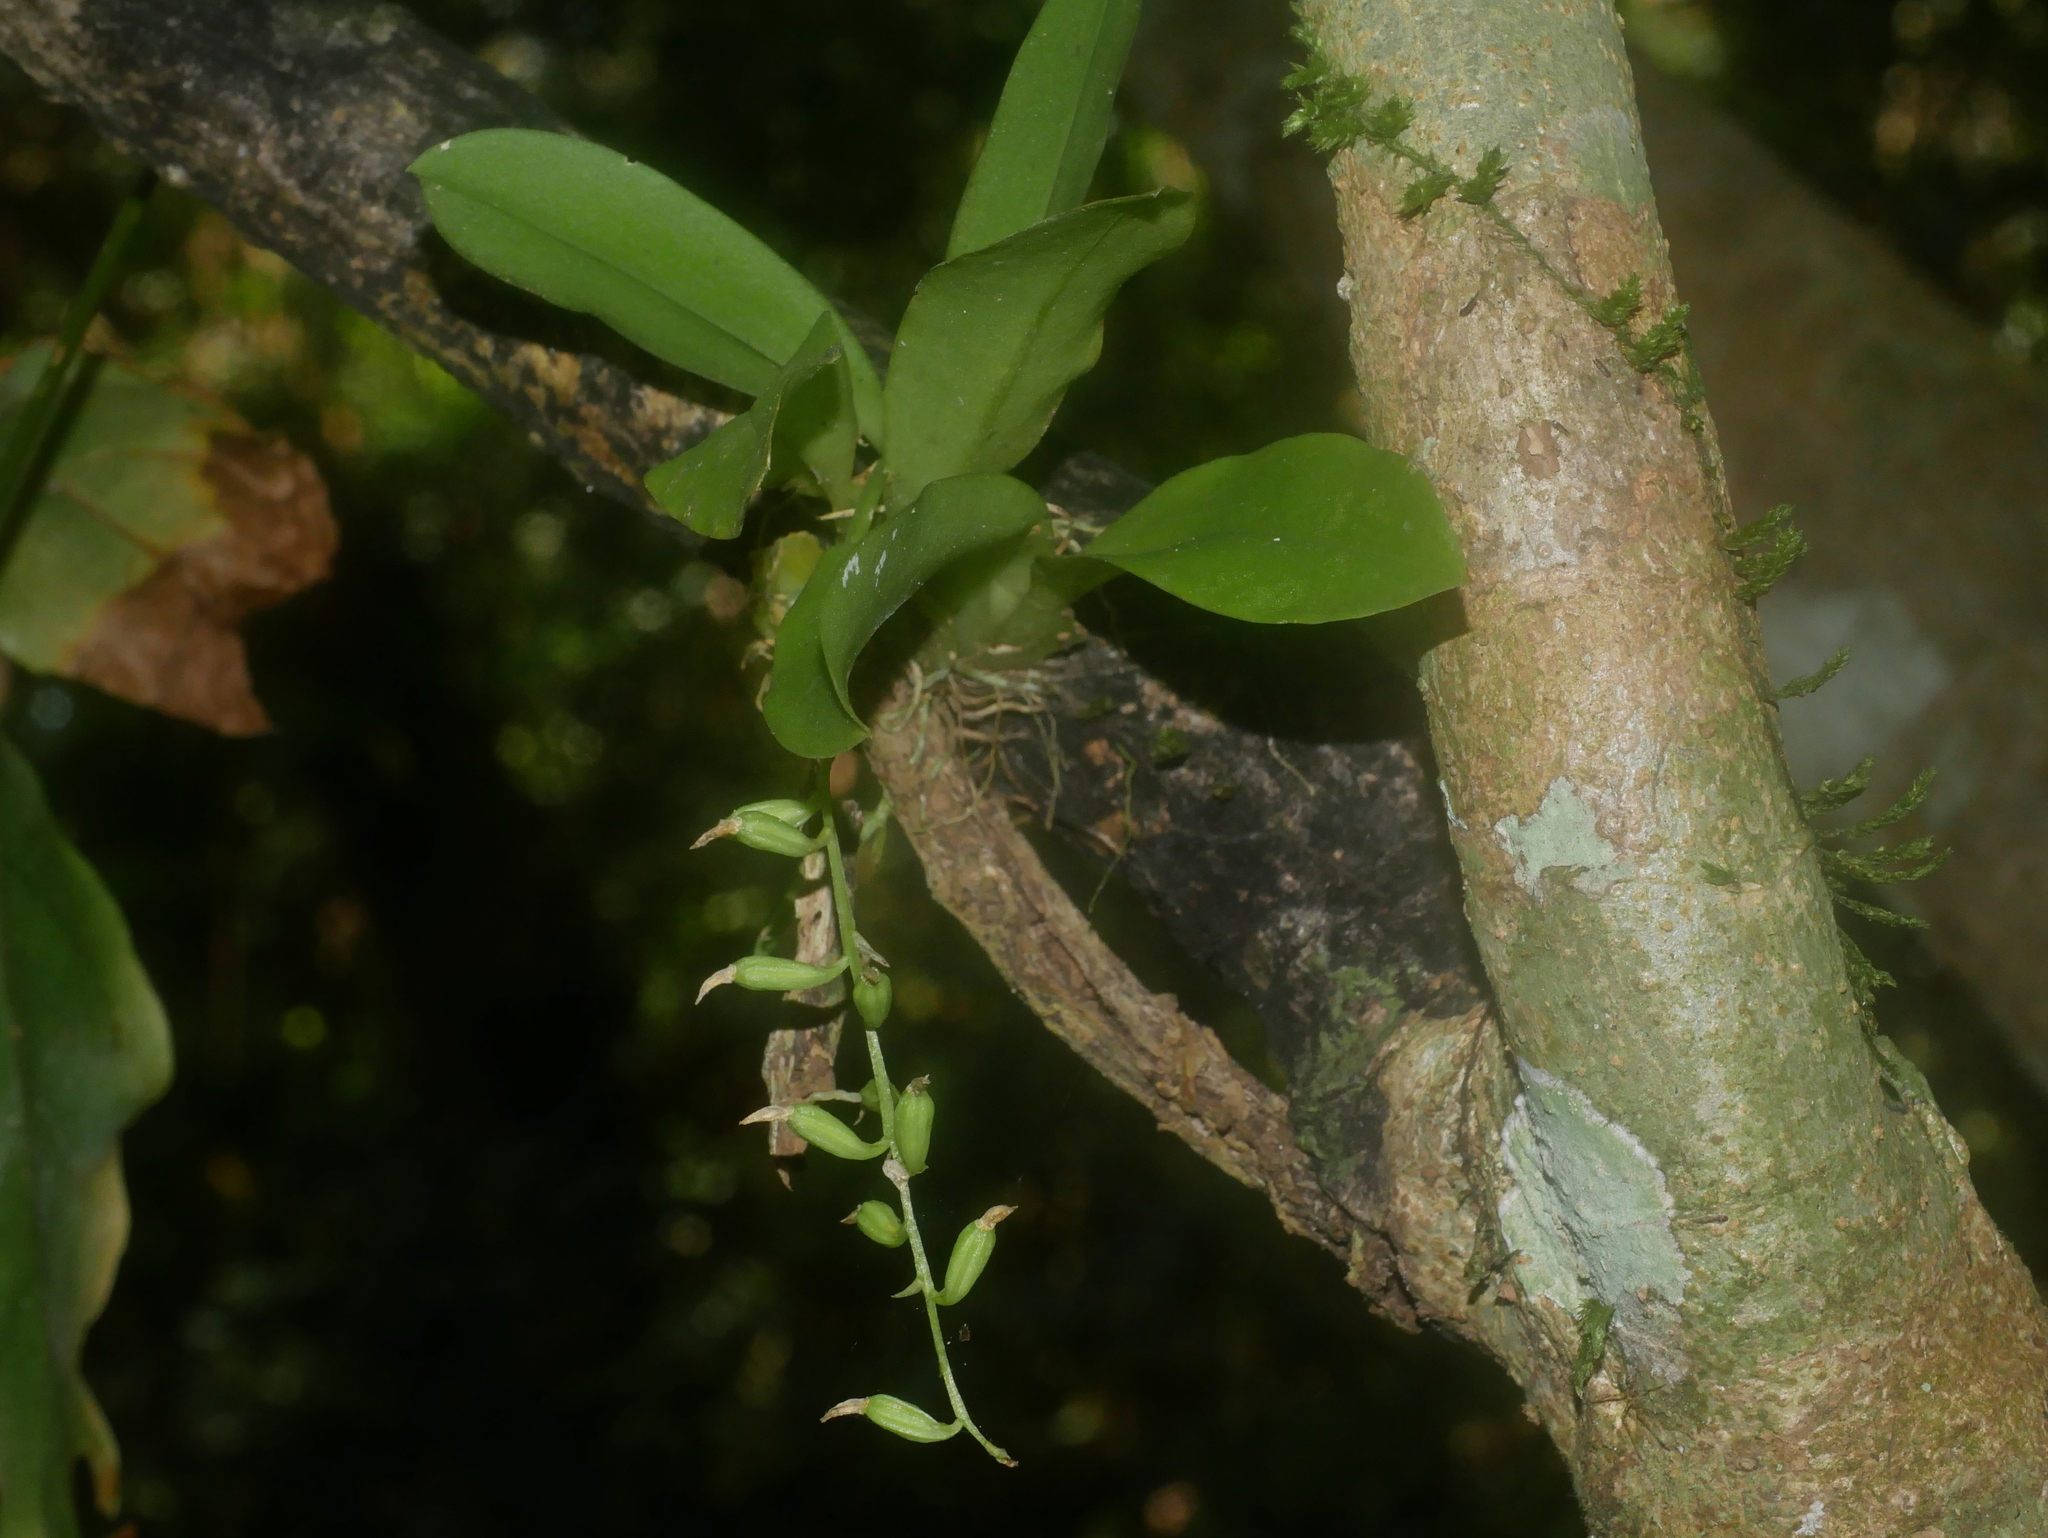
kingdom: Plantae
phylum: Tracheophyta
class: Liliopsida
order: Asparagales
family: Orchidaceae
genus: Liparis
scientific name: Liparis elliptica
